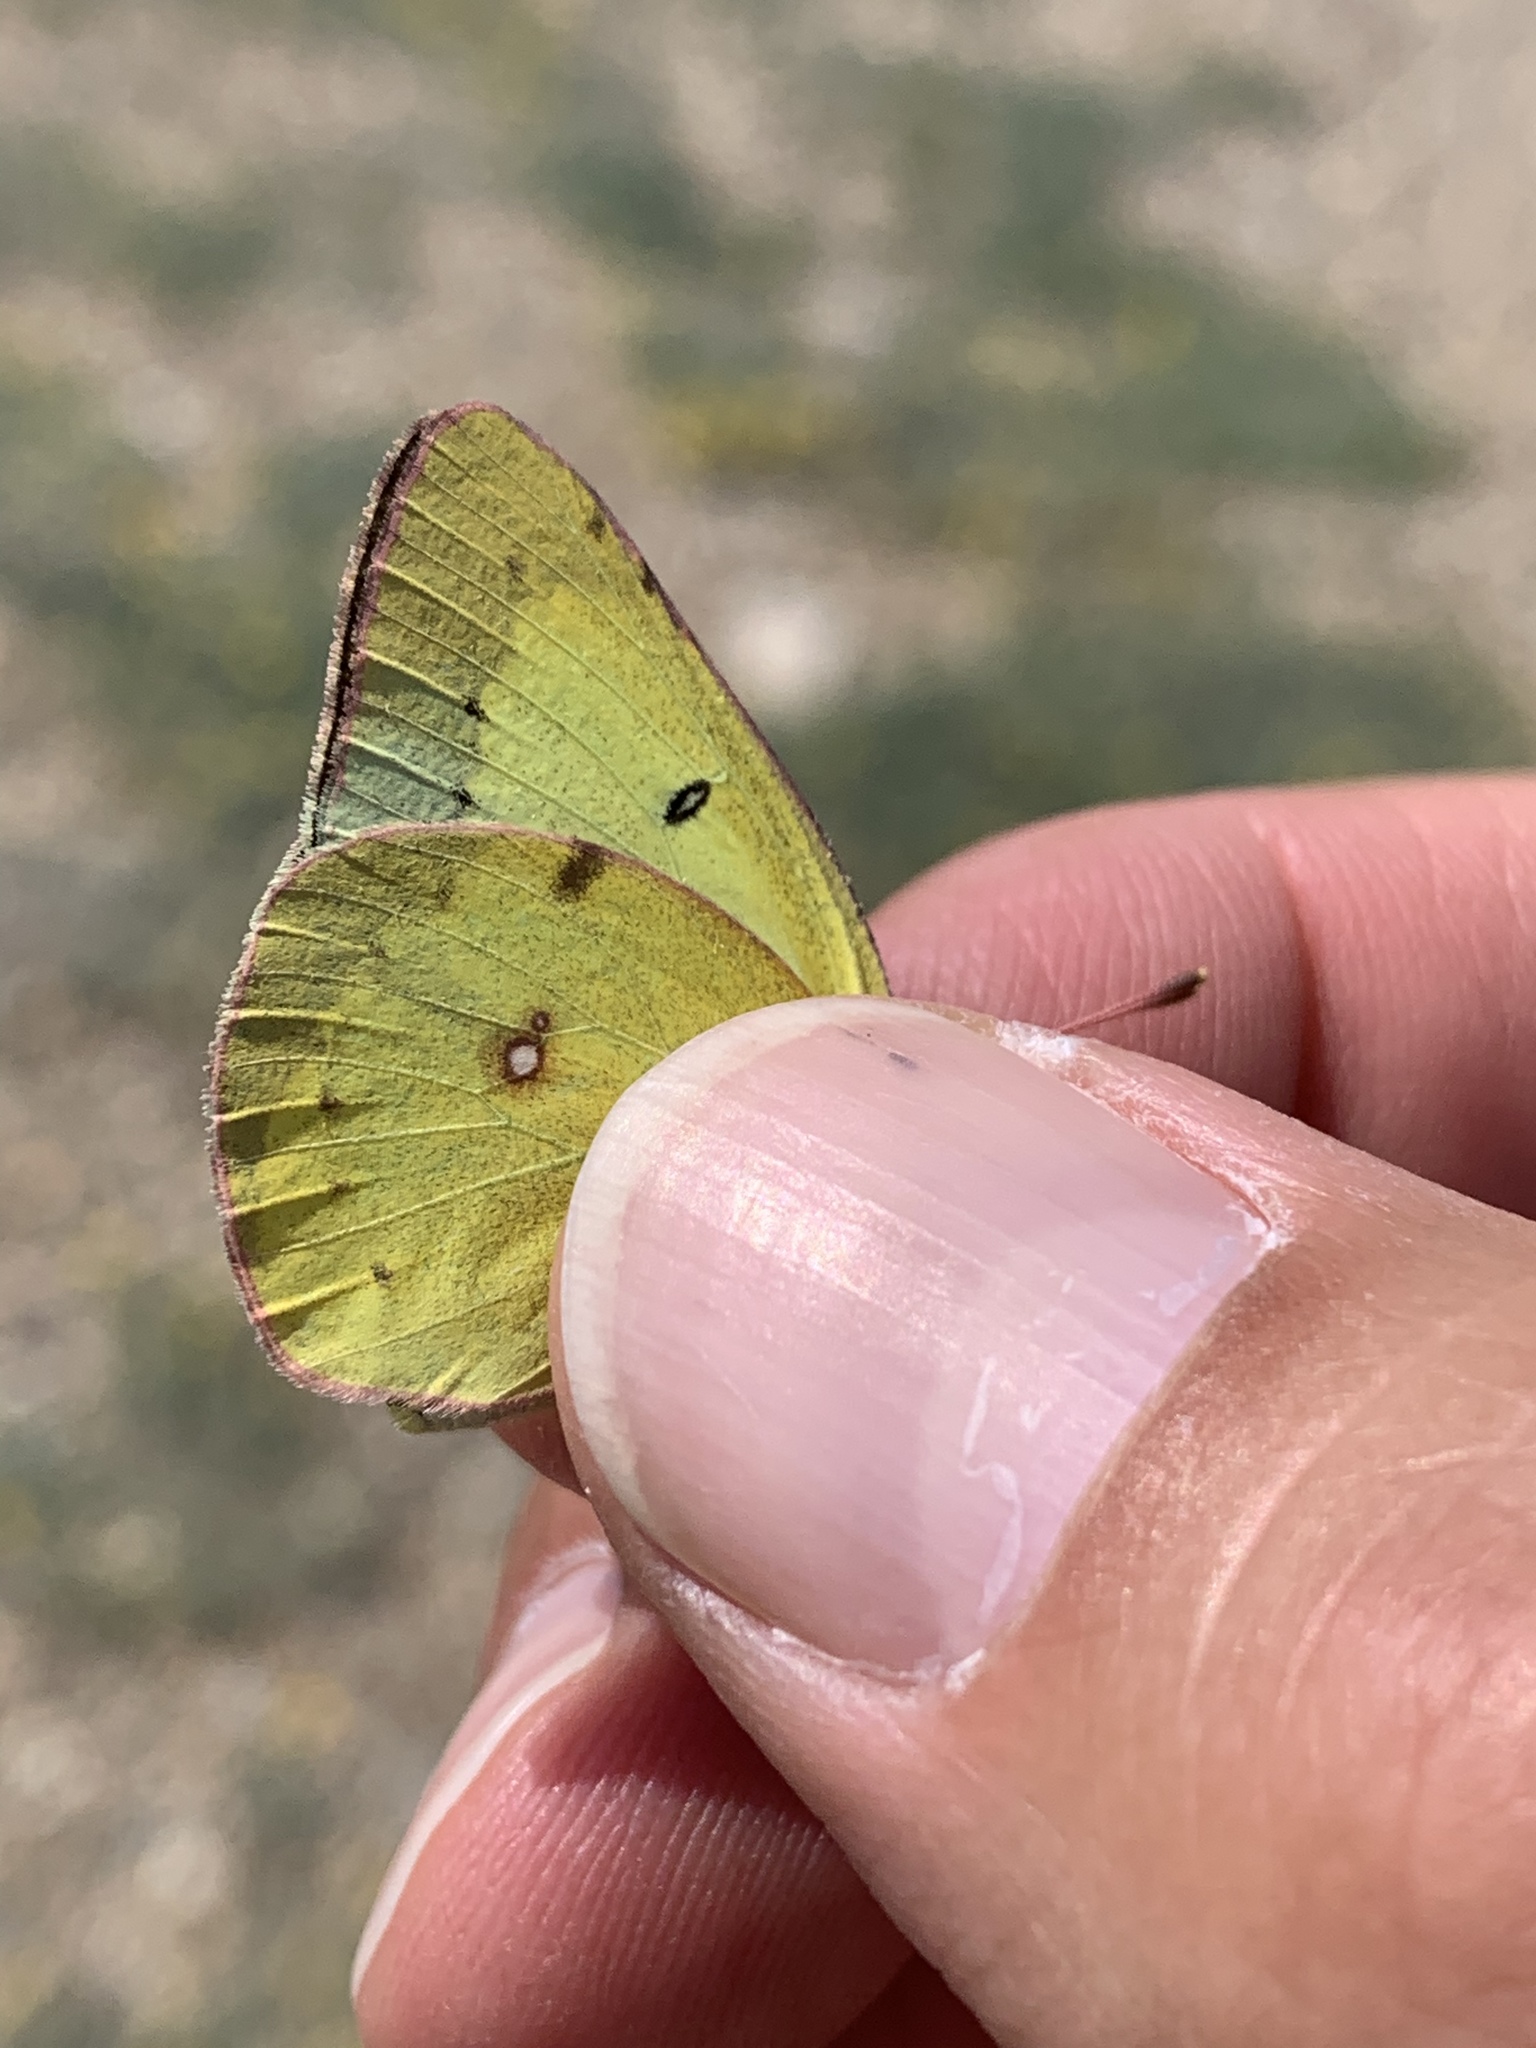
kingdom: Animalia
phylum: Arthropoda
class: Insecta
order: Lepidoptera
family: Pieridae
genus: Colias
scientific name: Colias philodice
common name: Clouded sulphur
